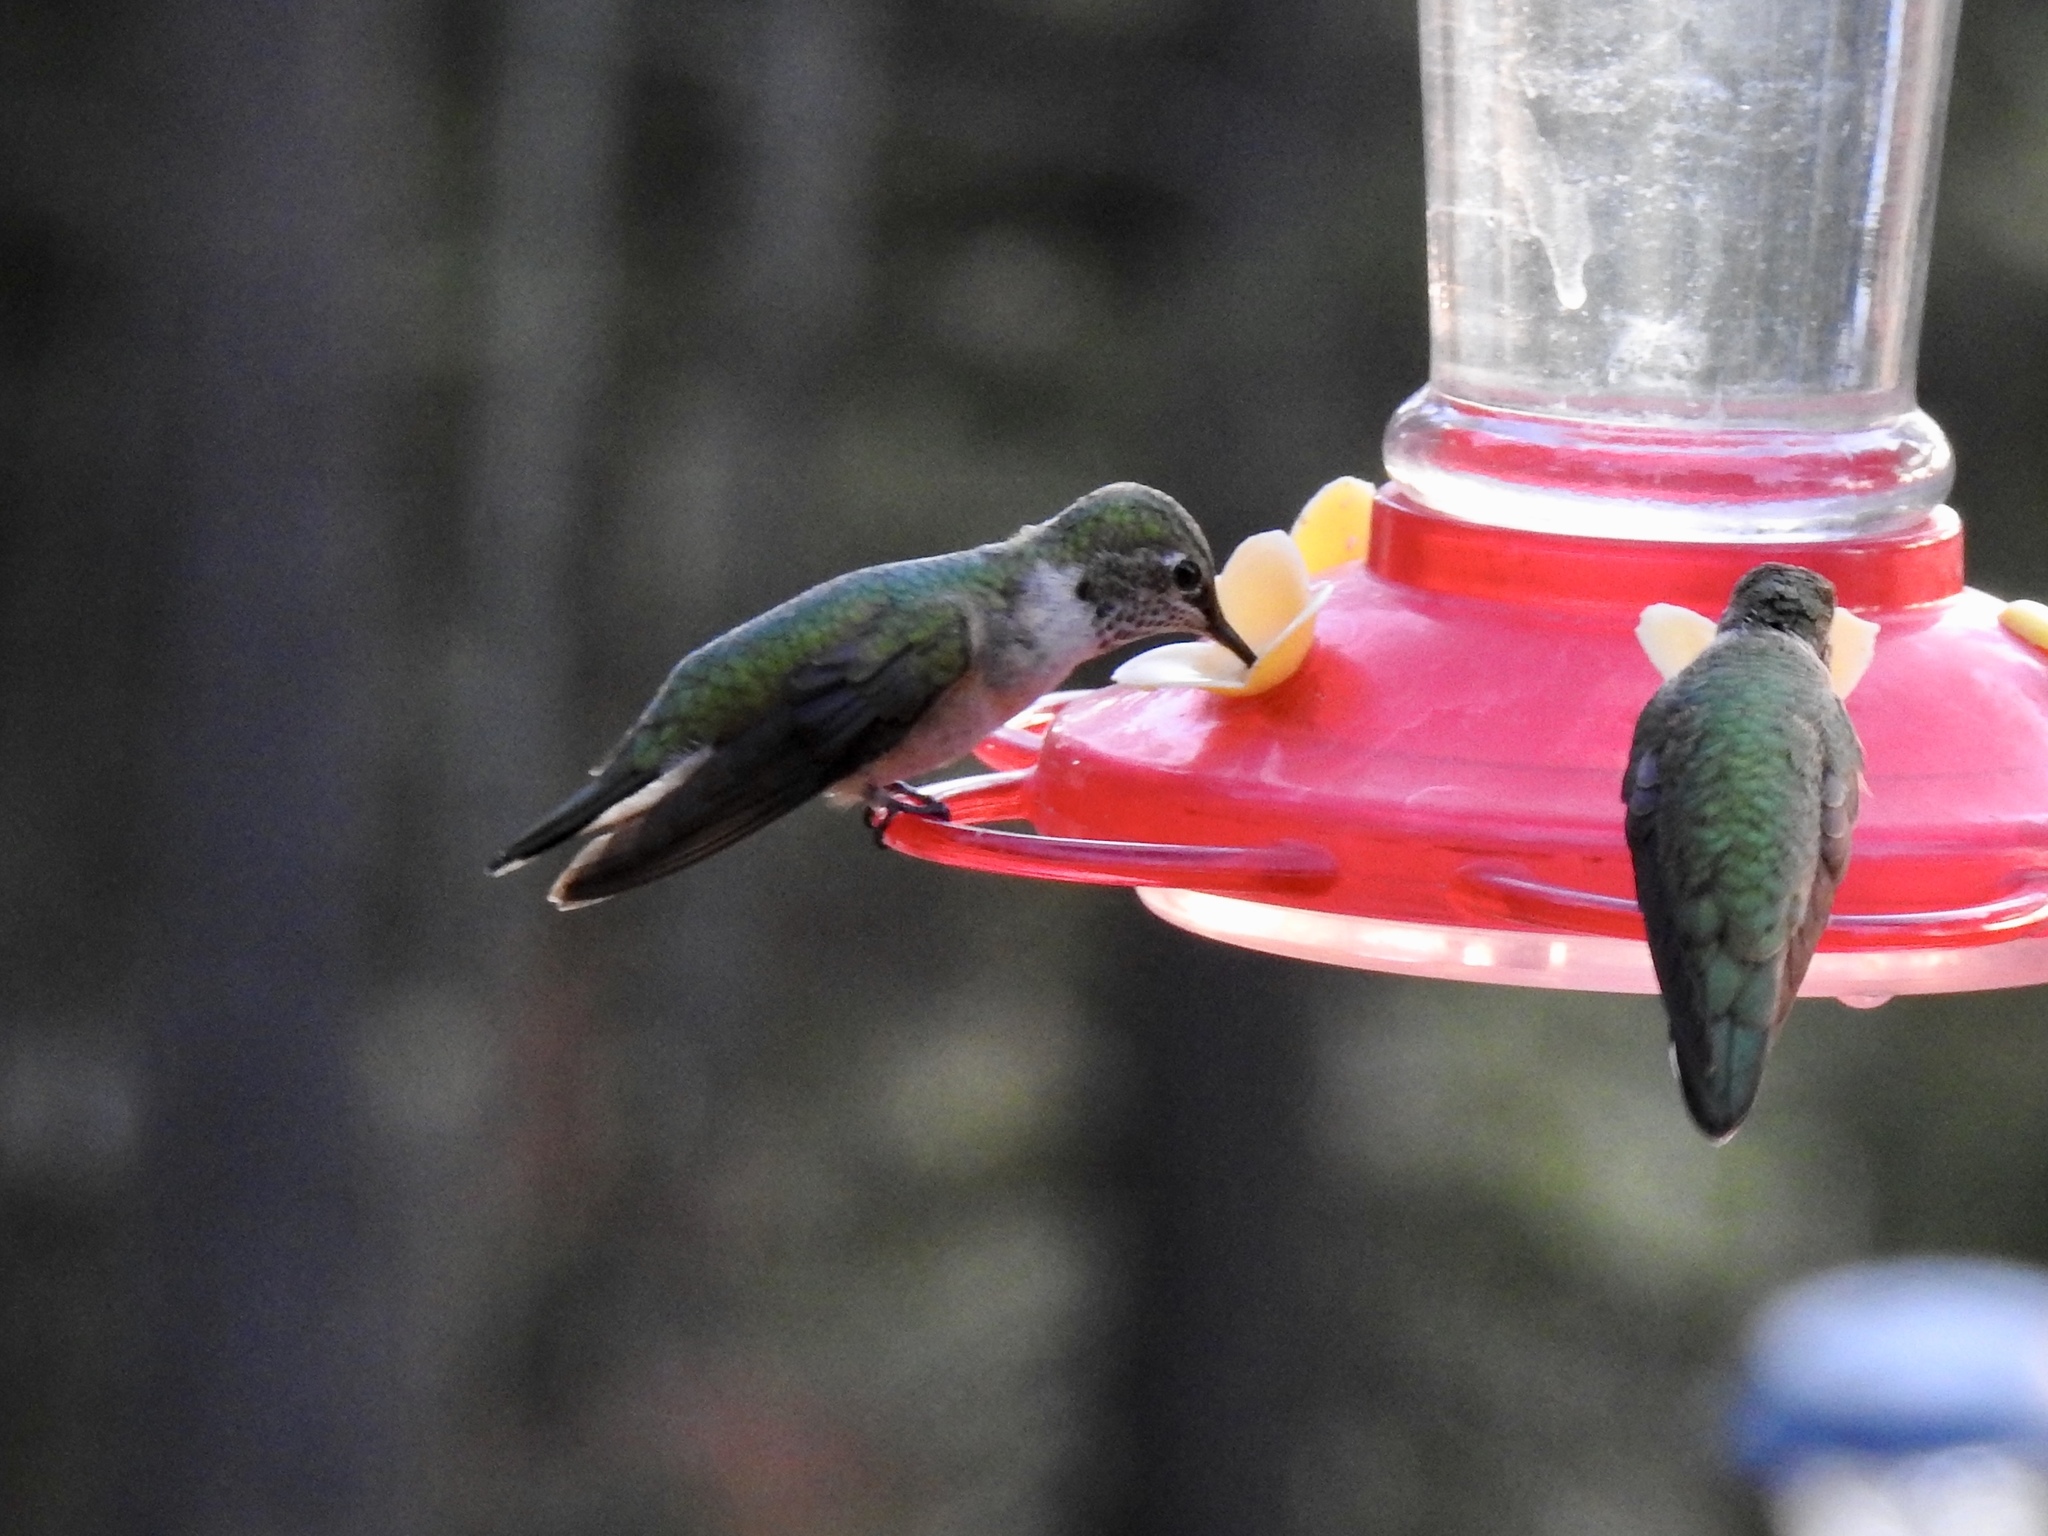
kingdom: Animalia
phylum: Chordata
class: Aves
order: Apodiformes
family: Trochilidae
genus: Selasphorus
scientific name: Selasphorus platycercus
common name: Broad-tailed hummingbird
